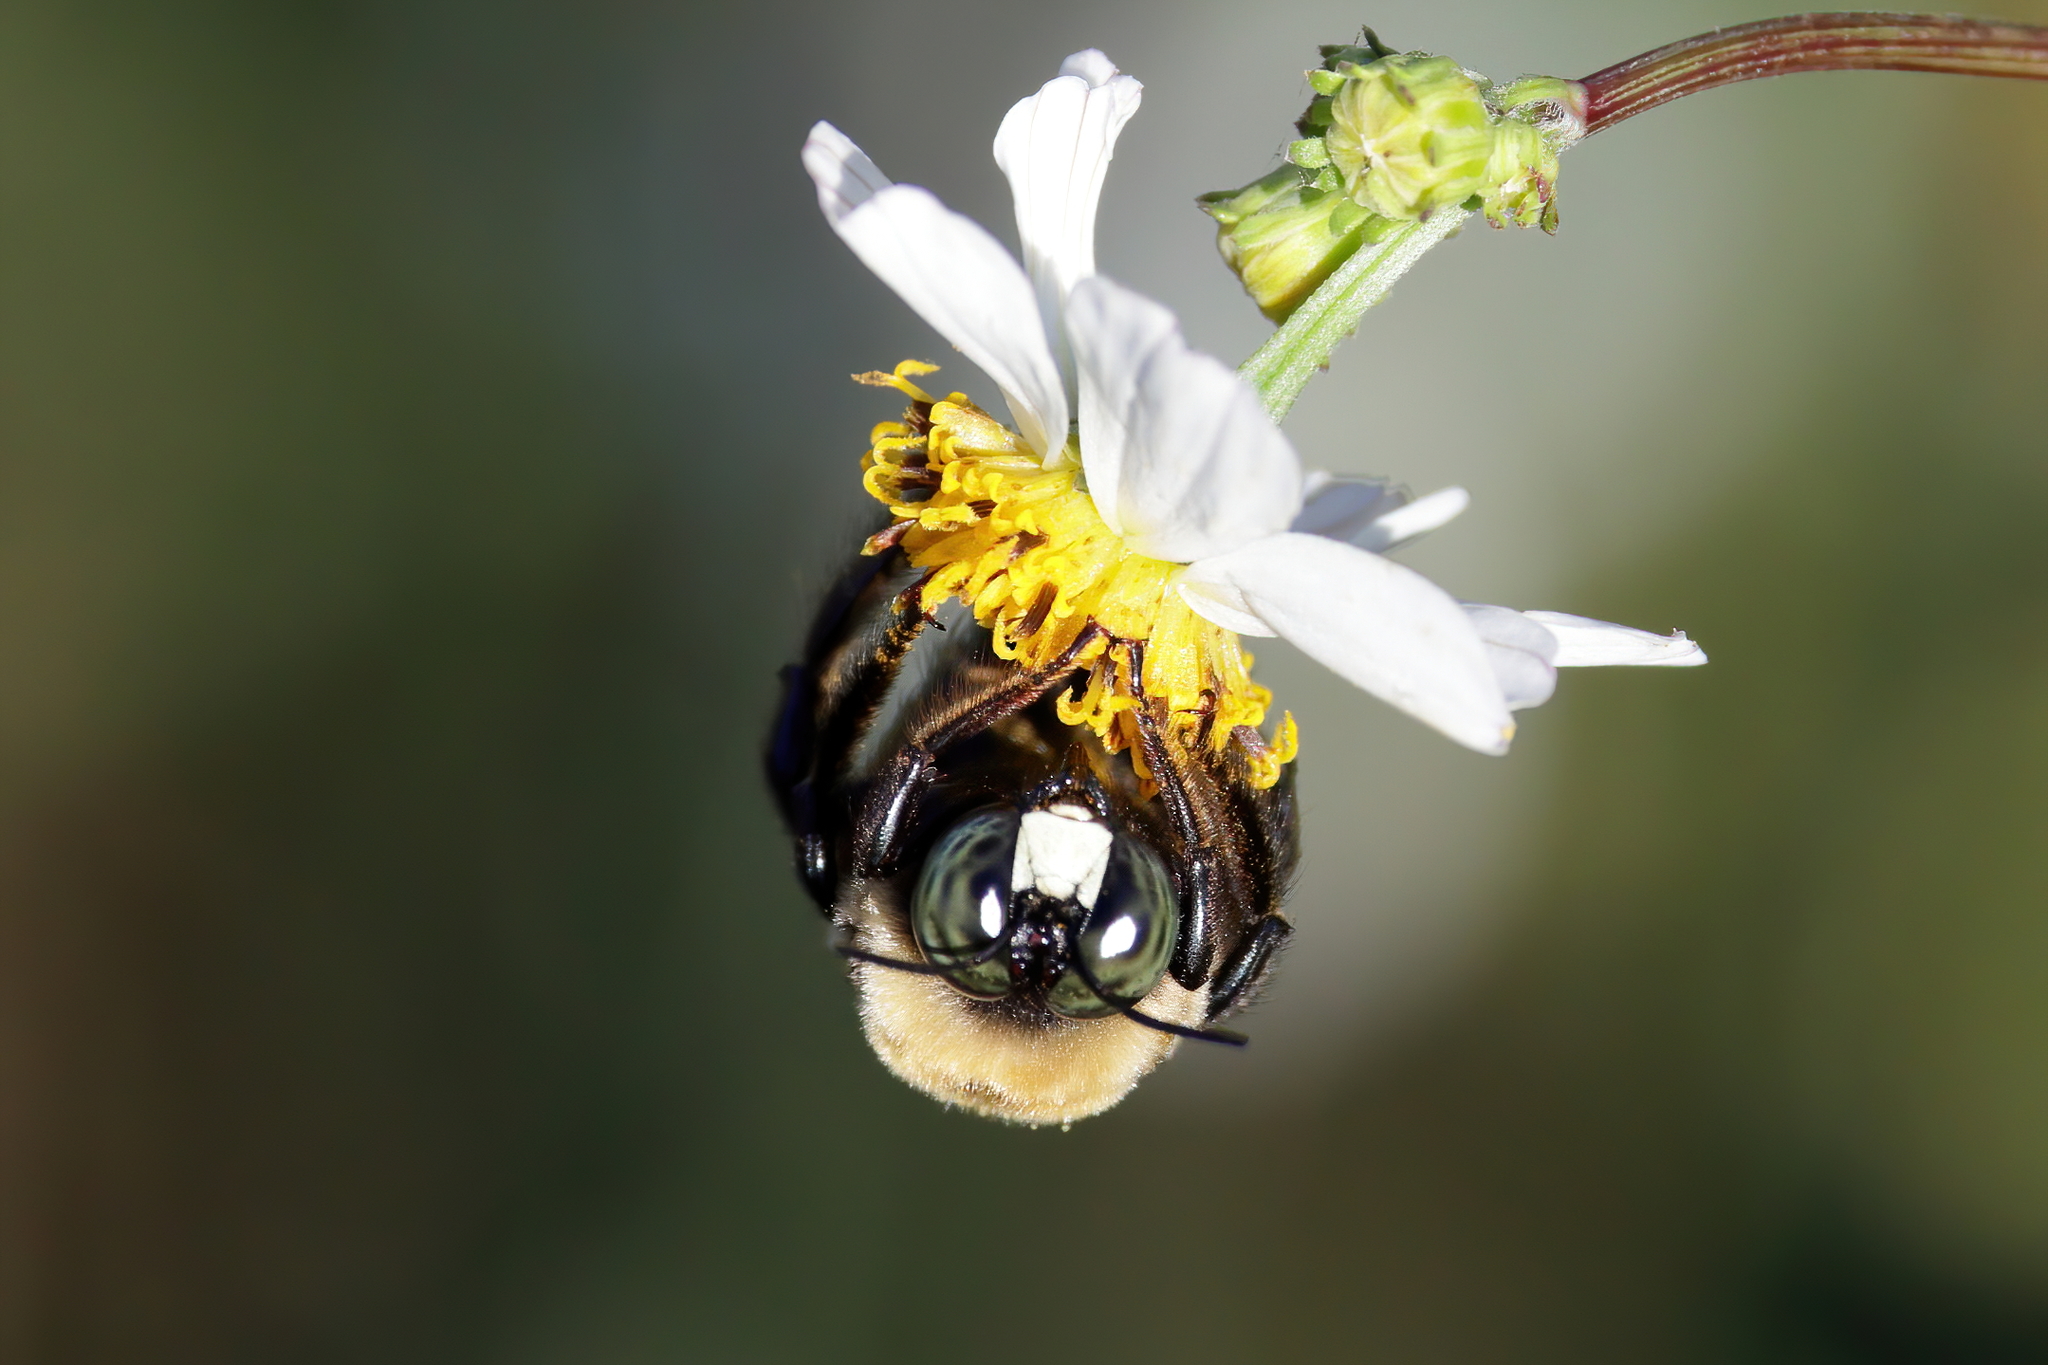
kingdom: Animalia
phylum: Arthropoda
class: Insecta
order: Hymenoptera
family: Apidae
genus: Xylocopa
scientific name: Xylocopa virginica
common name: Carpenter bee
